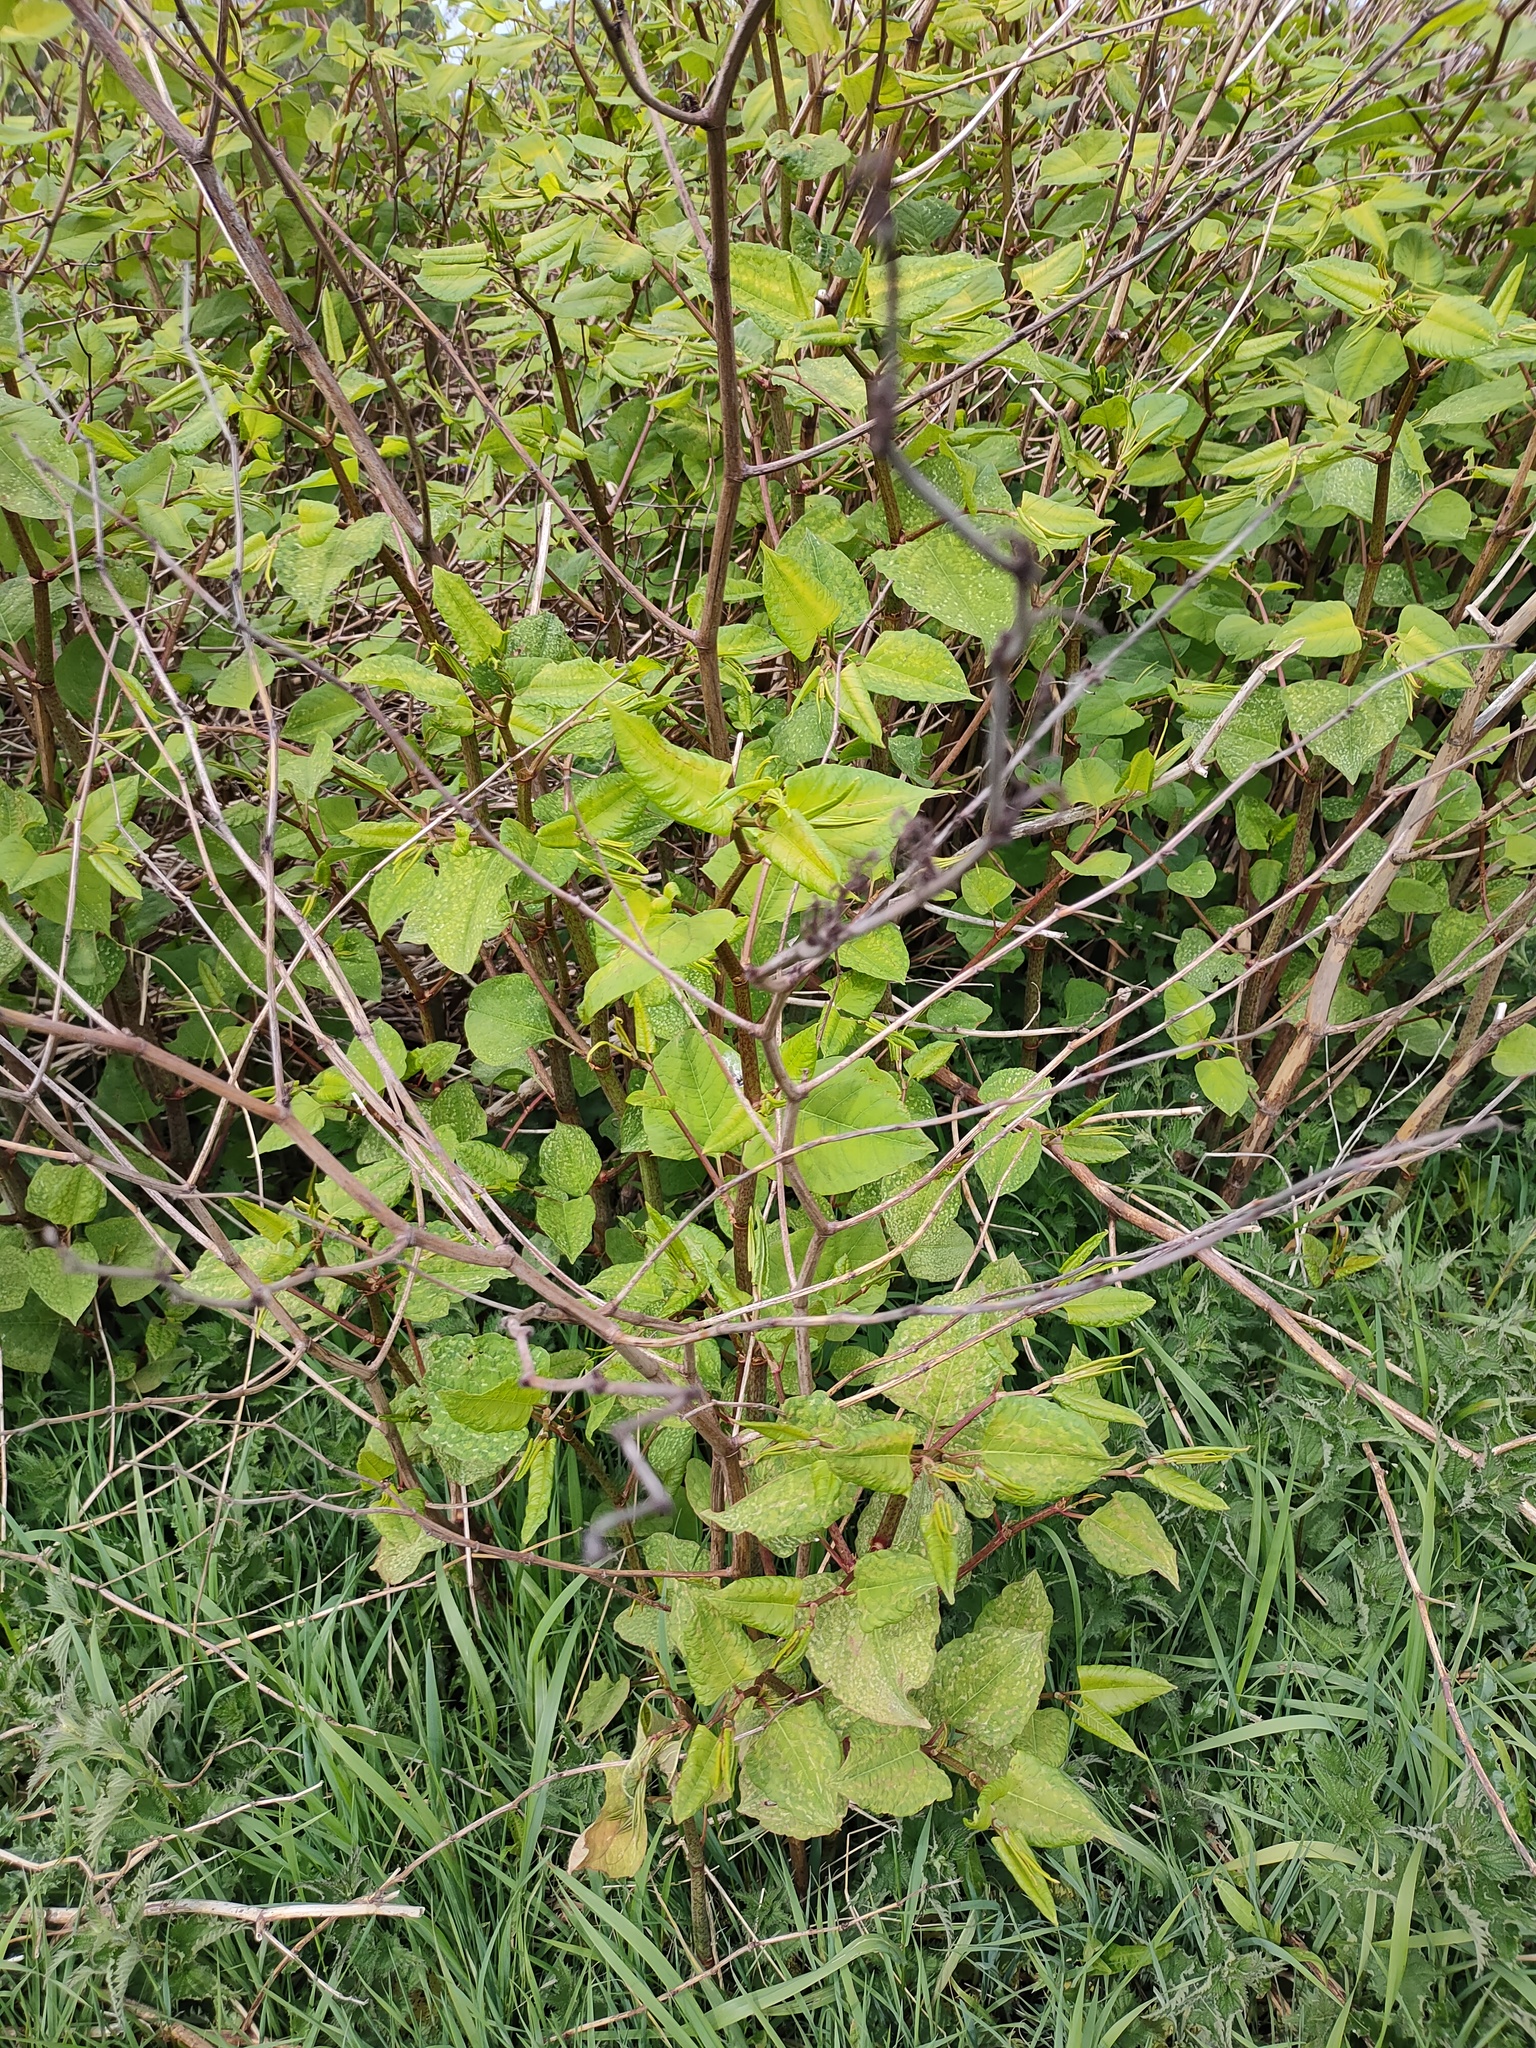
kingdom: Plantae
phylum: Tracheophyta
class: Magnoliopsida
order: Caryophyllales
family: Polygonaceae
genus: Reynoutria
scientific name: Reynoutria japonica
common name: Japanese knotweed
